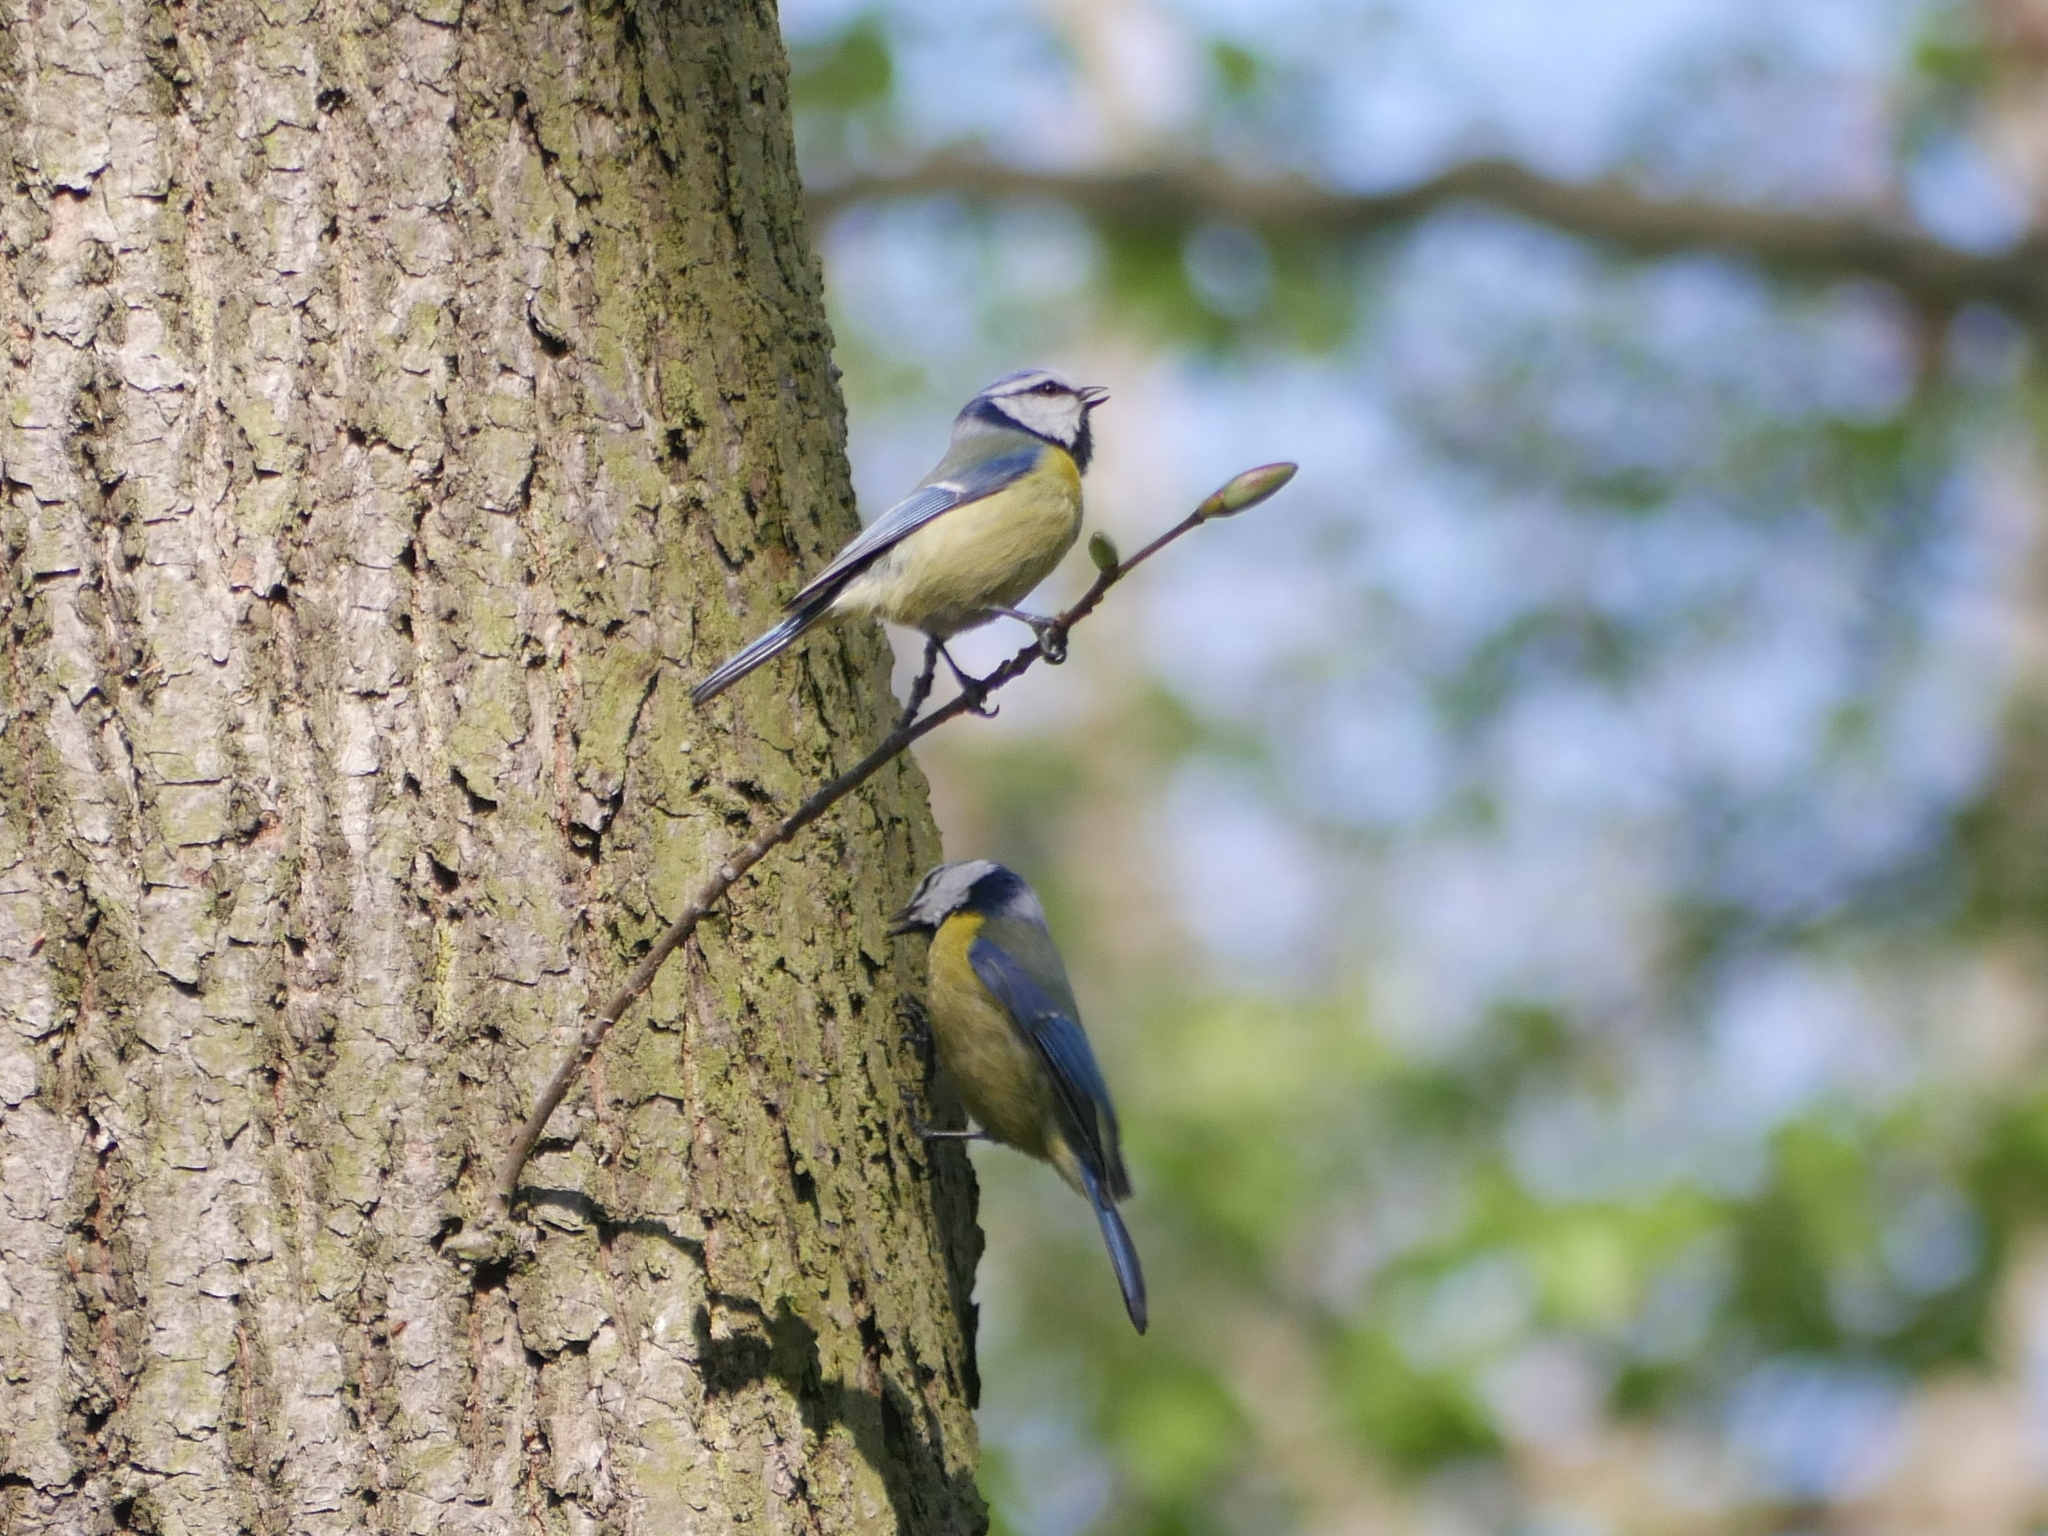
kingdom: Animalia
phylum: Chordata
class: Aves
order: Passeriformes
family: Paridae
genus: Cyanistes
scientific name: Cyanistes caeruleus
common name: Eurasian blue tit
